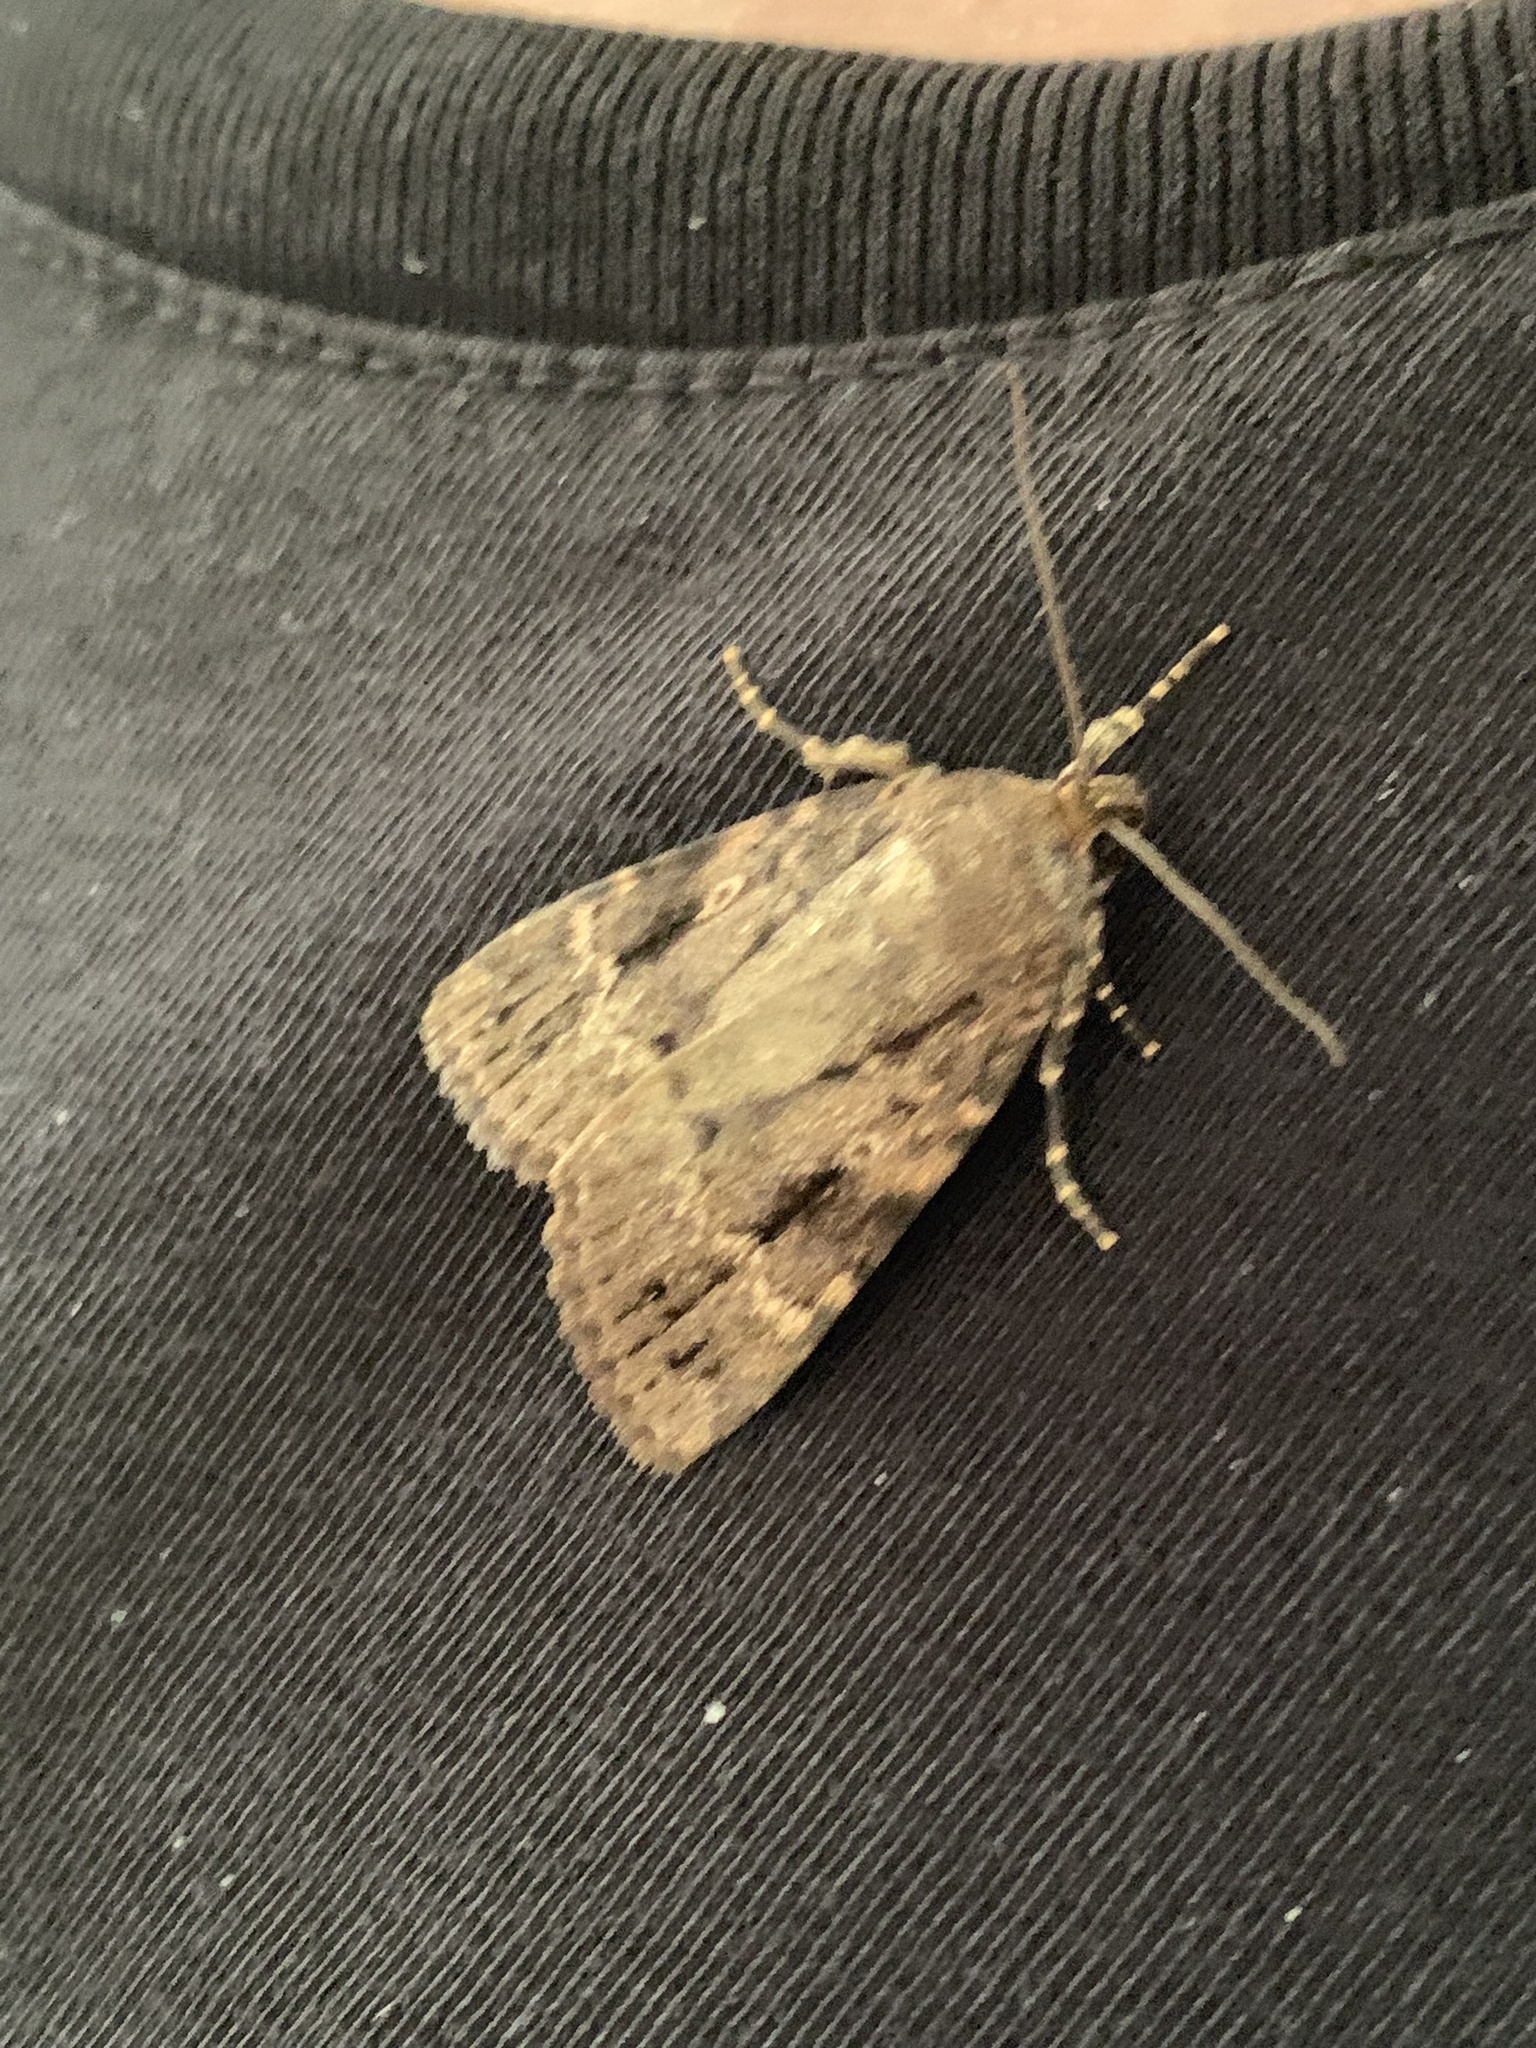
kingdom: Animalia
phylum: Arthropoda
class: Insecta
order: Lepidoptera
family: Noctuidae
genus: Amphipyra
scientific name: Amphipyra pyramidea
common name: Copper underwing
